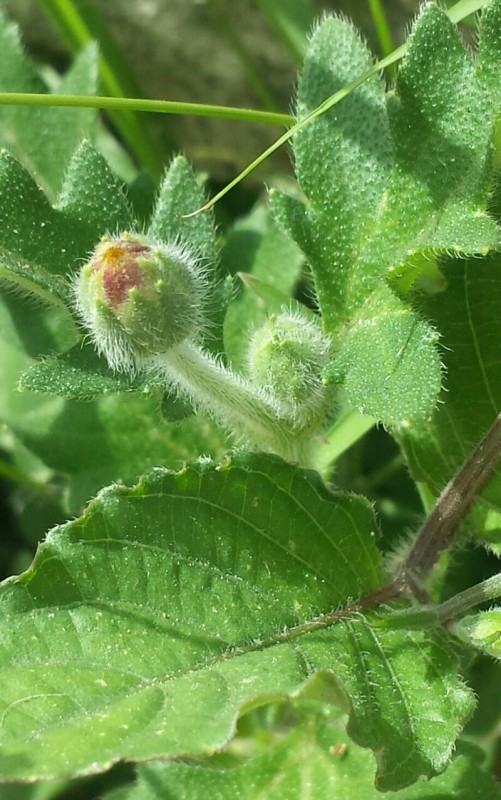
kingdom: Plantae
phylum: Tracheophyta
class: Magnoliopsida
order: Asterales
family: Asteraceae
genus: Tridax
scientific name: Tridax procumbens
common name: Coatbuttons
